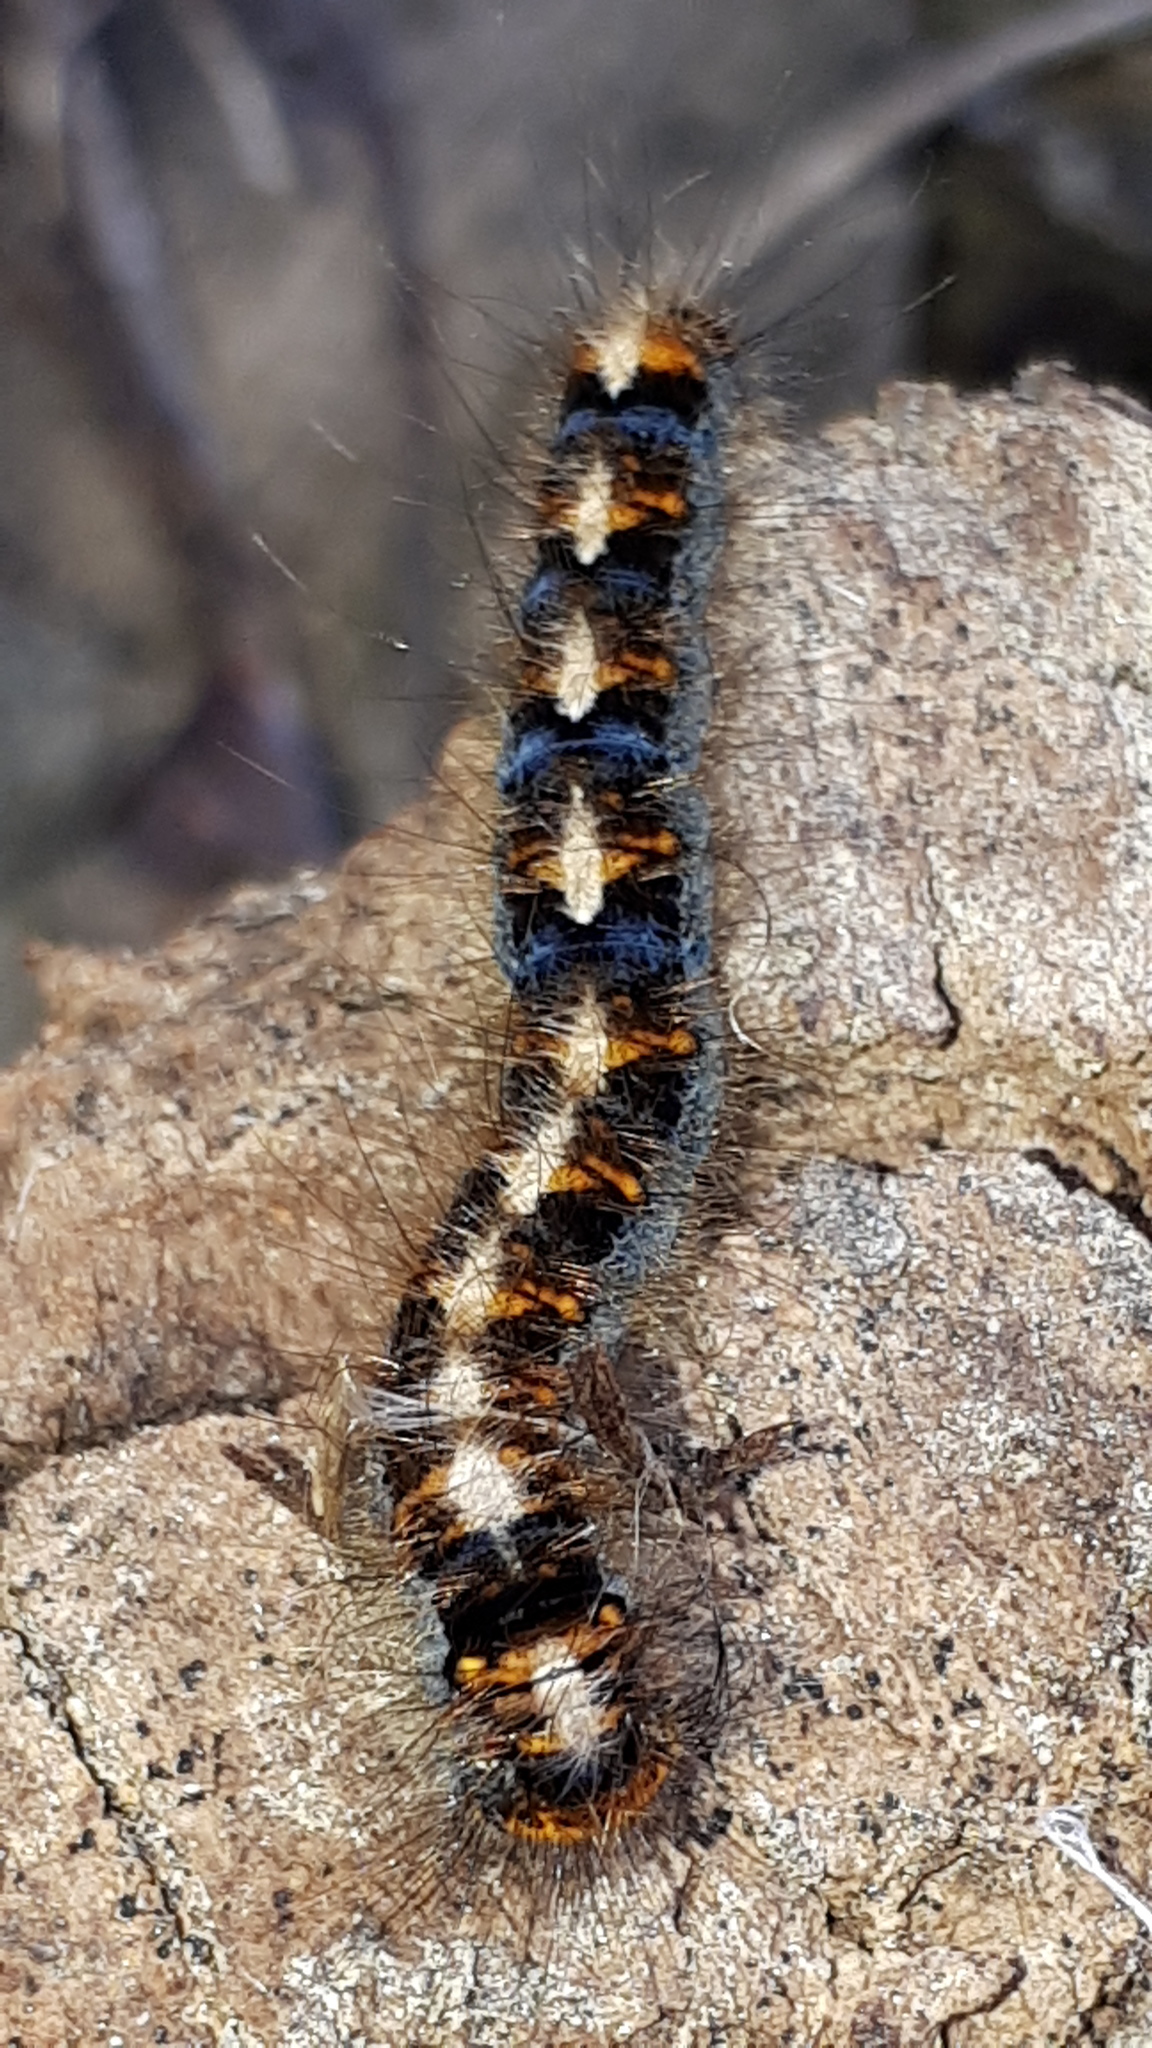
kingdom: Animalia
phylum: Arthropoda
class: Insecta
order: Lepidoptera
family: Lasiocampidae
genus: Lasiocampa
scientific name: Lasiocampa quercus
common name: Oak eggar
